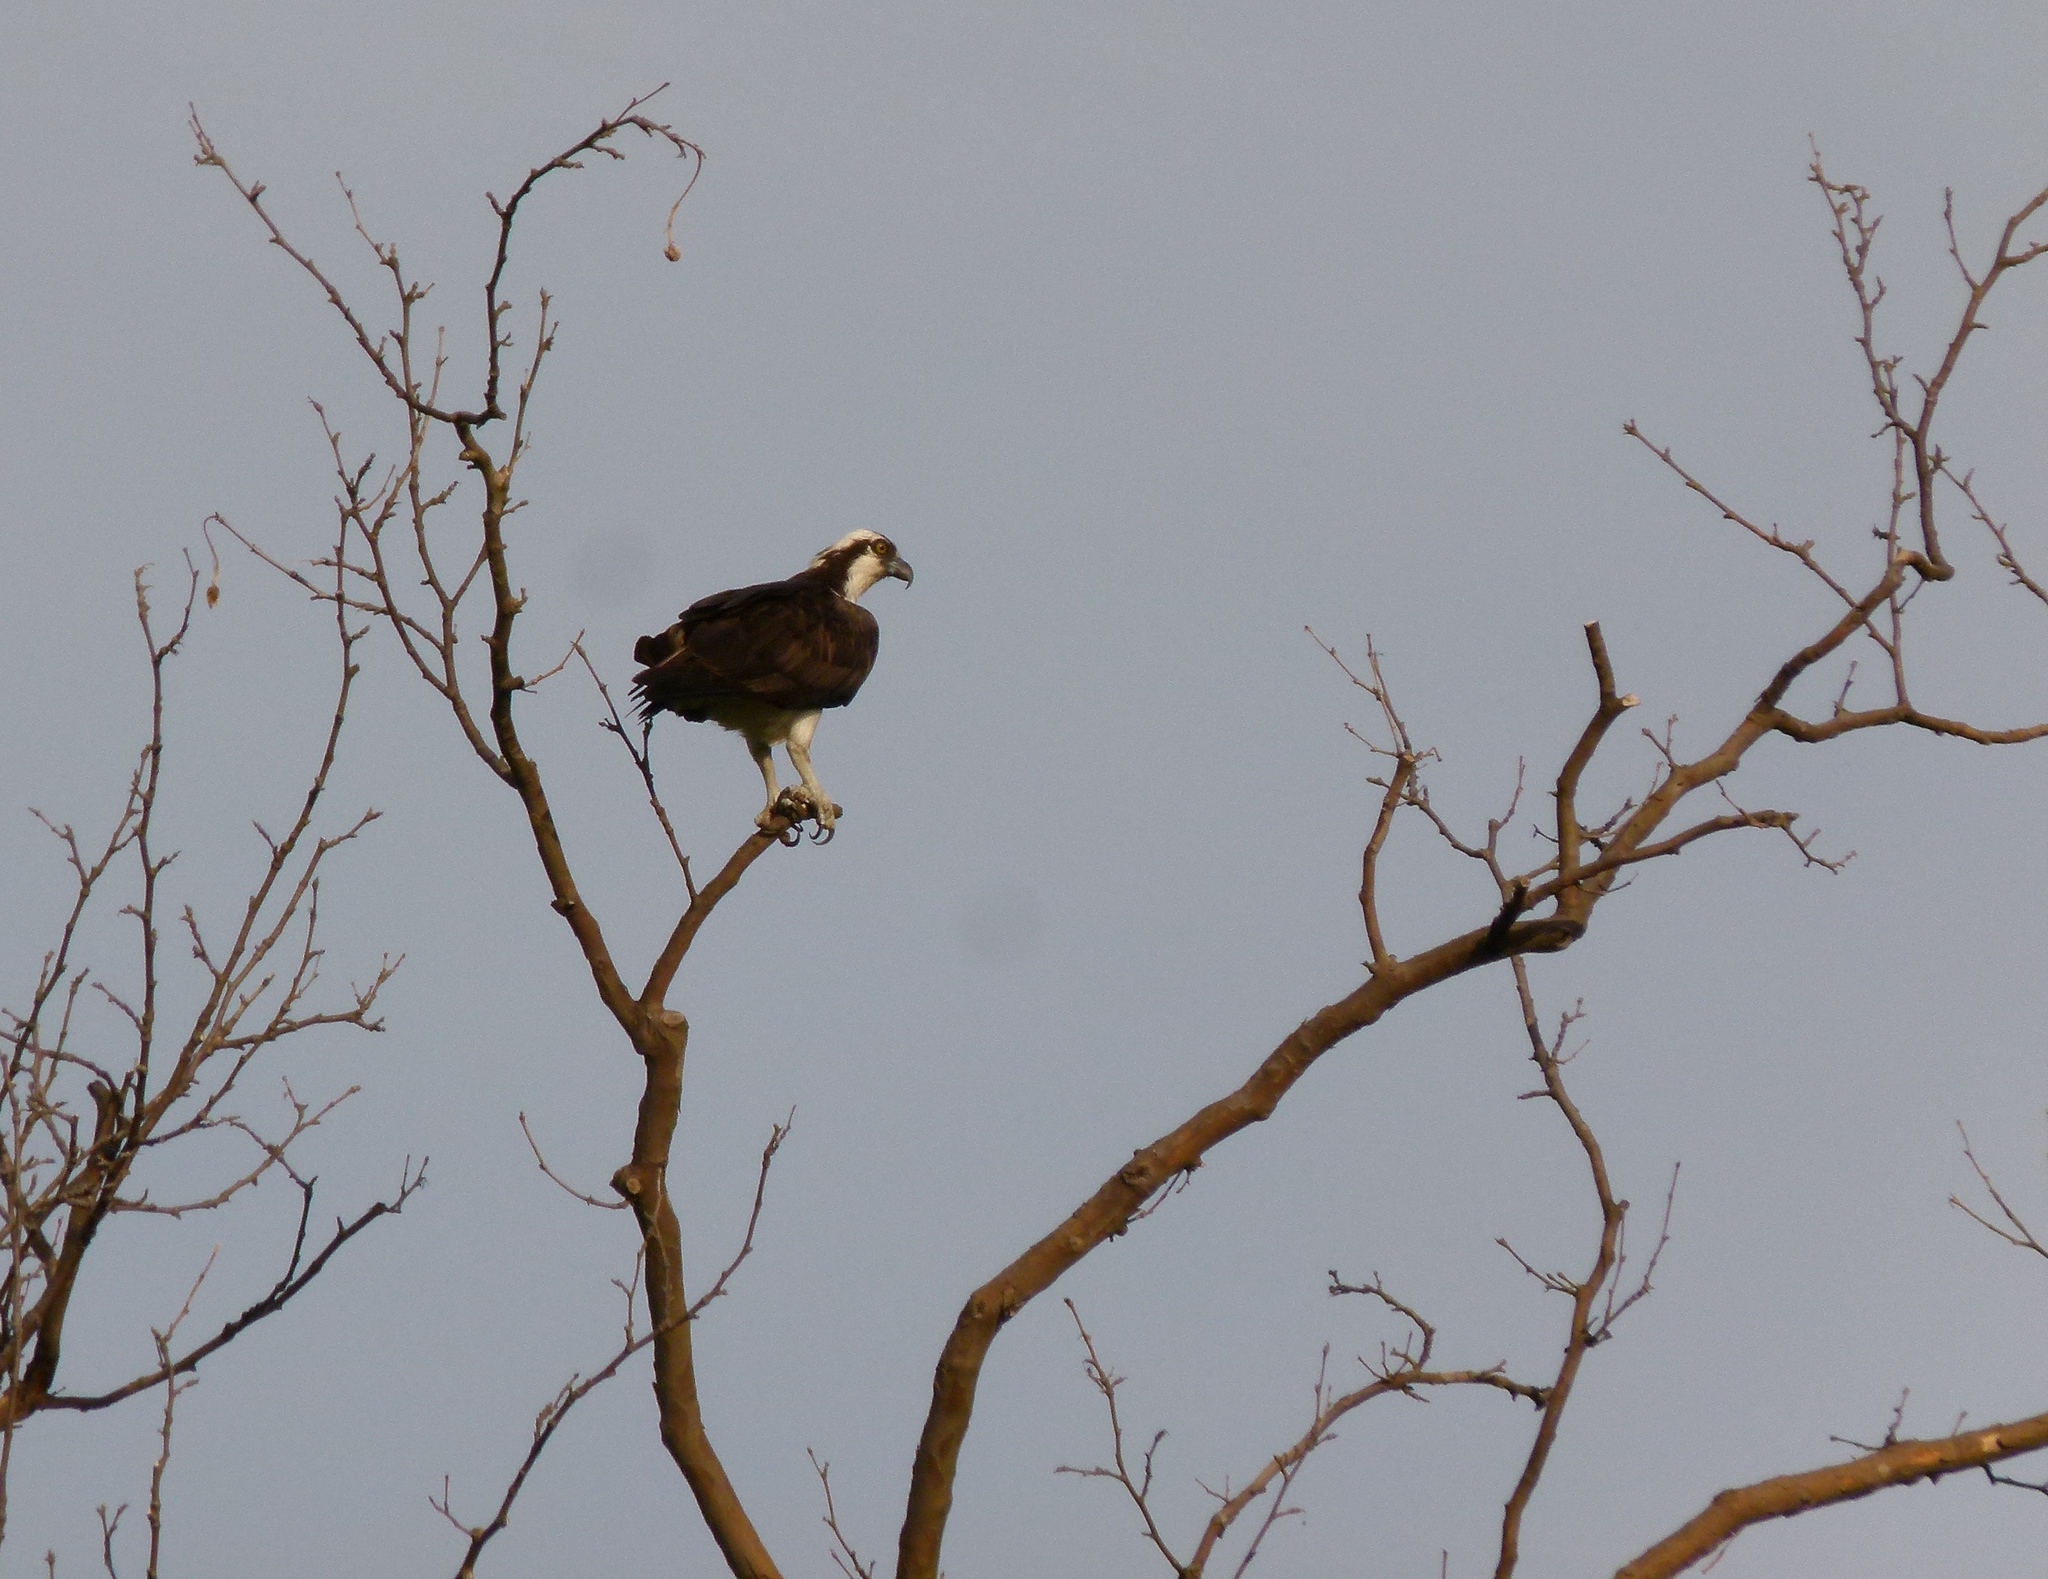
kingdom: Animalia
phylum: Chordata
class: Aves
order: Accipitriformes
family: Pandionidae
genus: Pandion
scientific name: Pandion haliaetus
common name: Osprey
